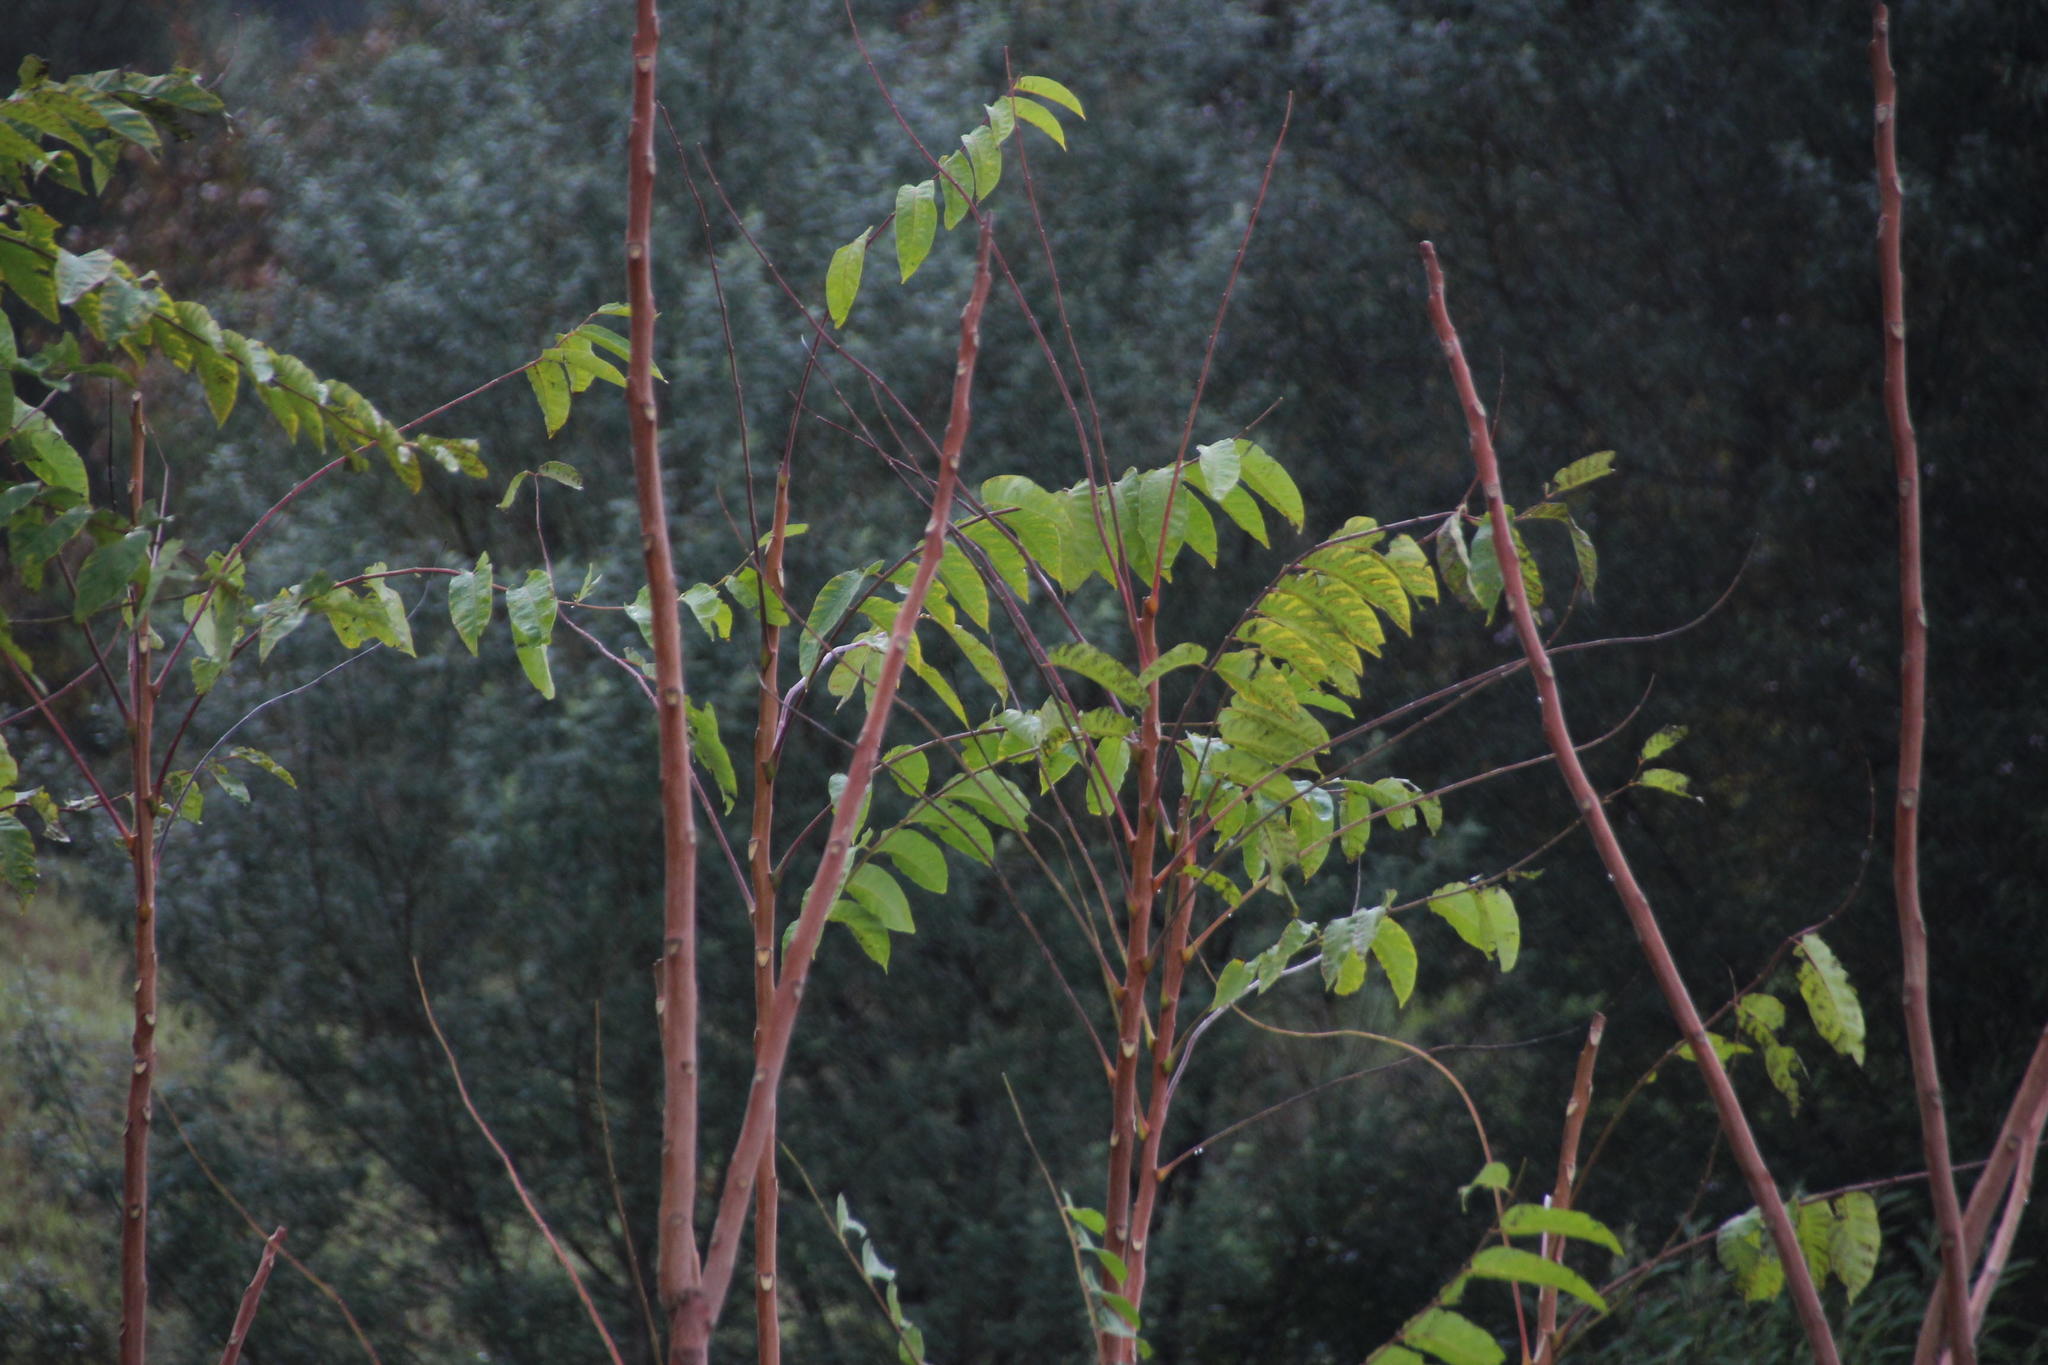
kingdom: Plantae
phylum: Tracheophyta
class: Magnoliopsida
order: Sapindales
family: Simaroubaceae
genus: Ailanthus
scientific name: Ailanthus altissima
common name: Tree-of-heaven
